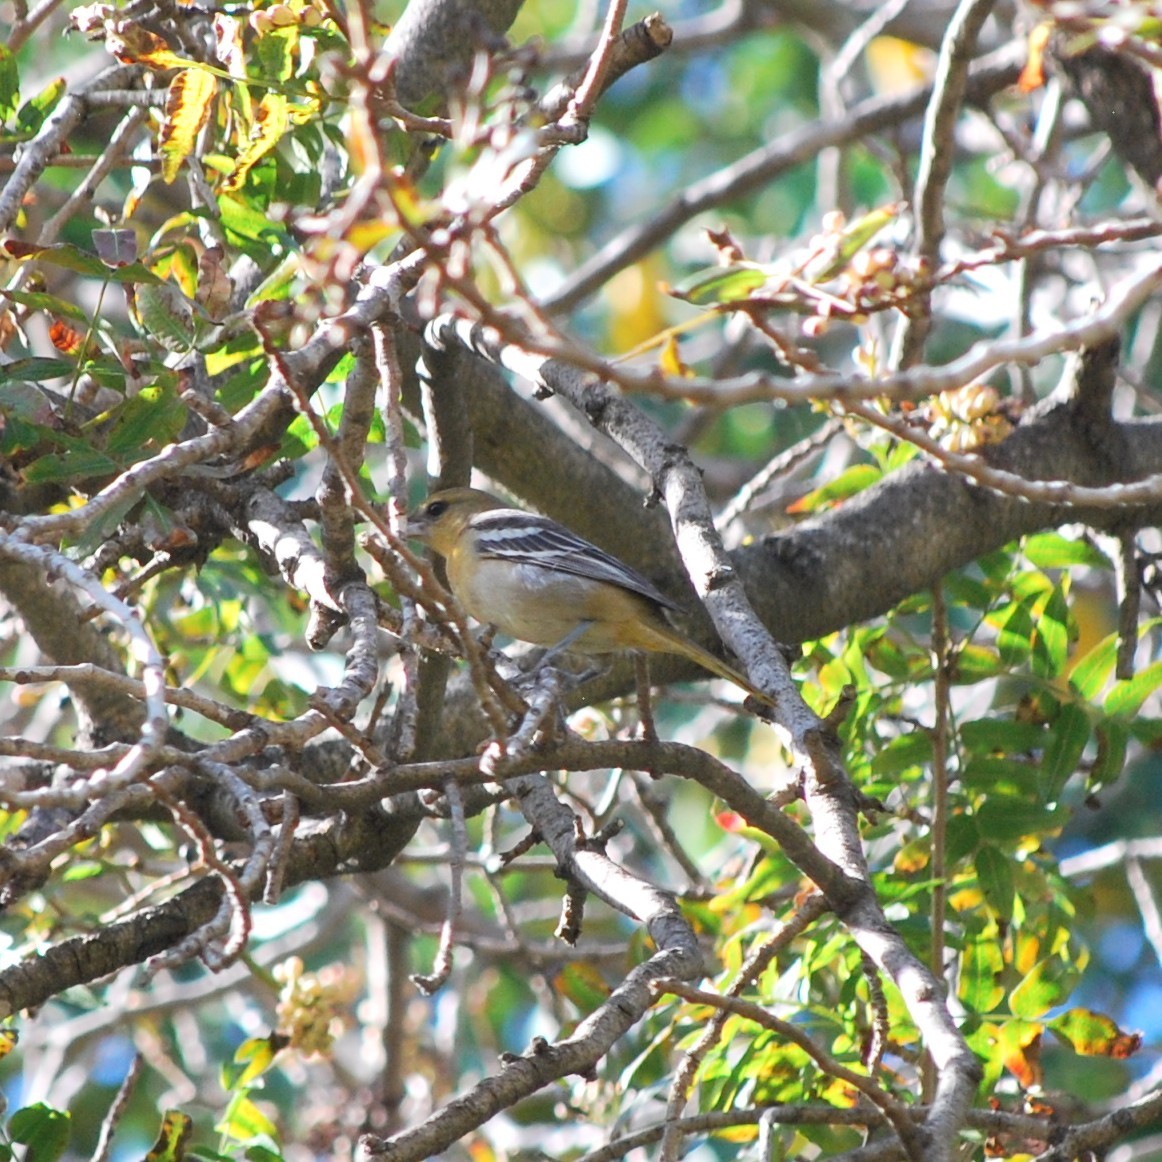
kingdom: Animalia
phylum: Chordata
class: Aves
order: Passeriformes
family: Icteridae
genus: Icterus
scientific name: Icterus bullockii
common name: Bullock's oriole
